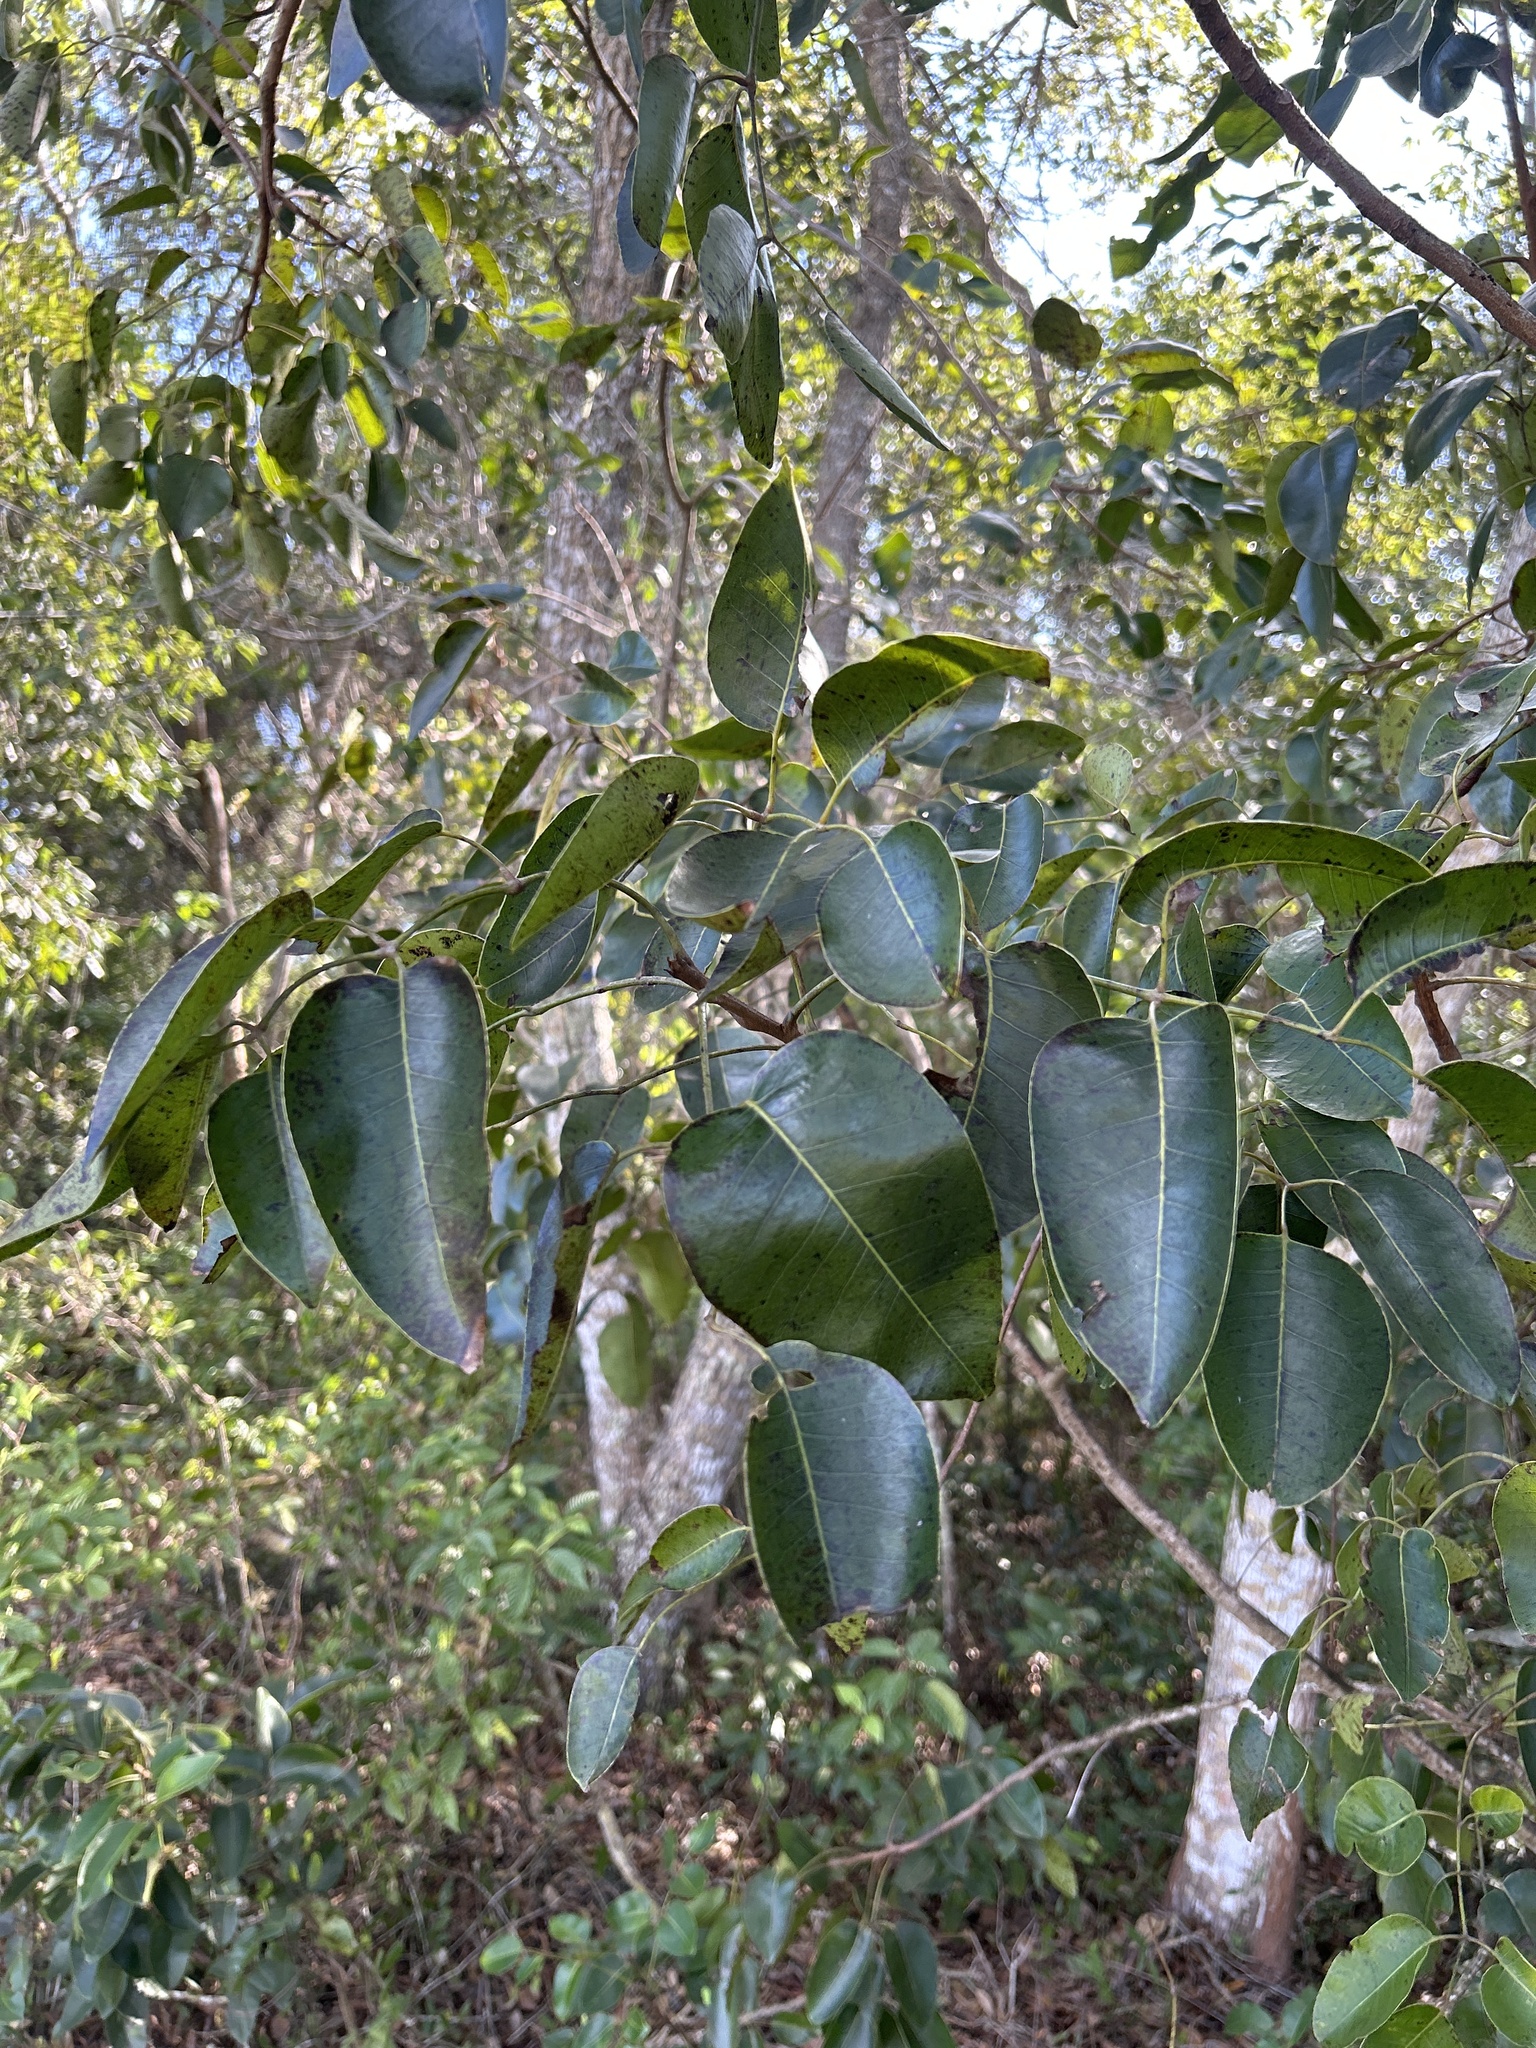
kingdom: Plantae
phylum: Tracheophyta
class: Magnoliopsida
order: Sapindales
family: Anacardiaceae
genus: Metopium
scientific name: Metopium toxiferum
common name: Florida poisontree
